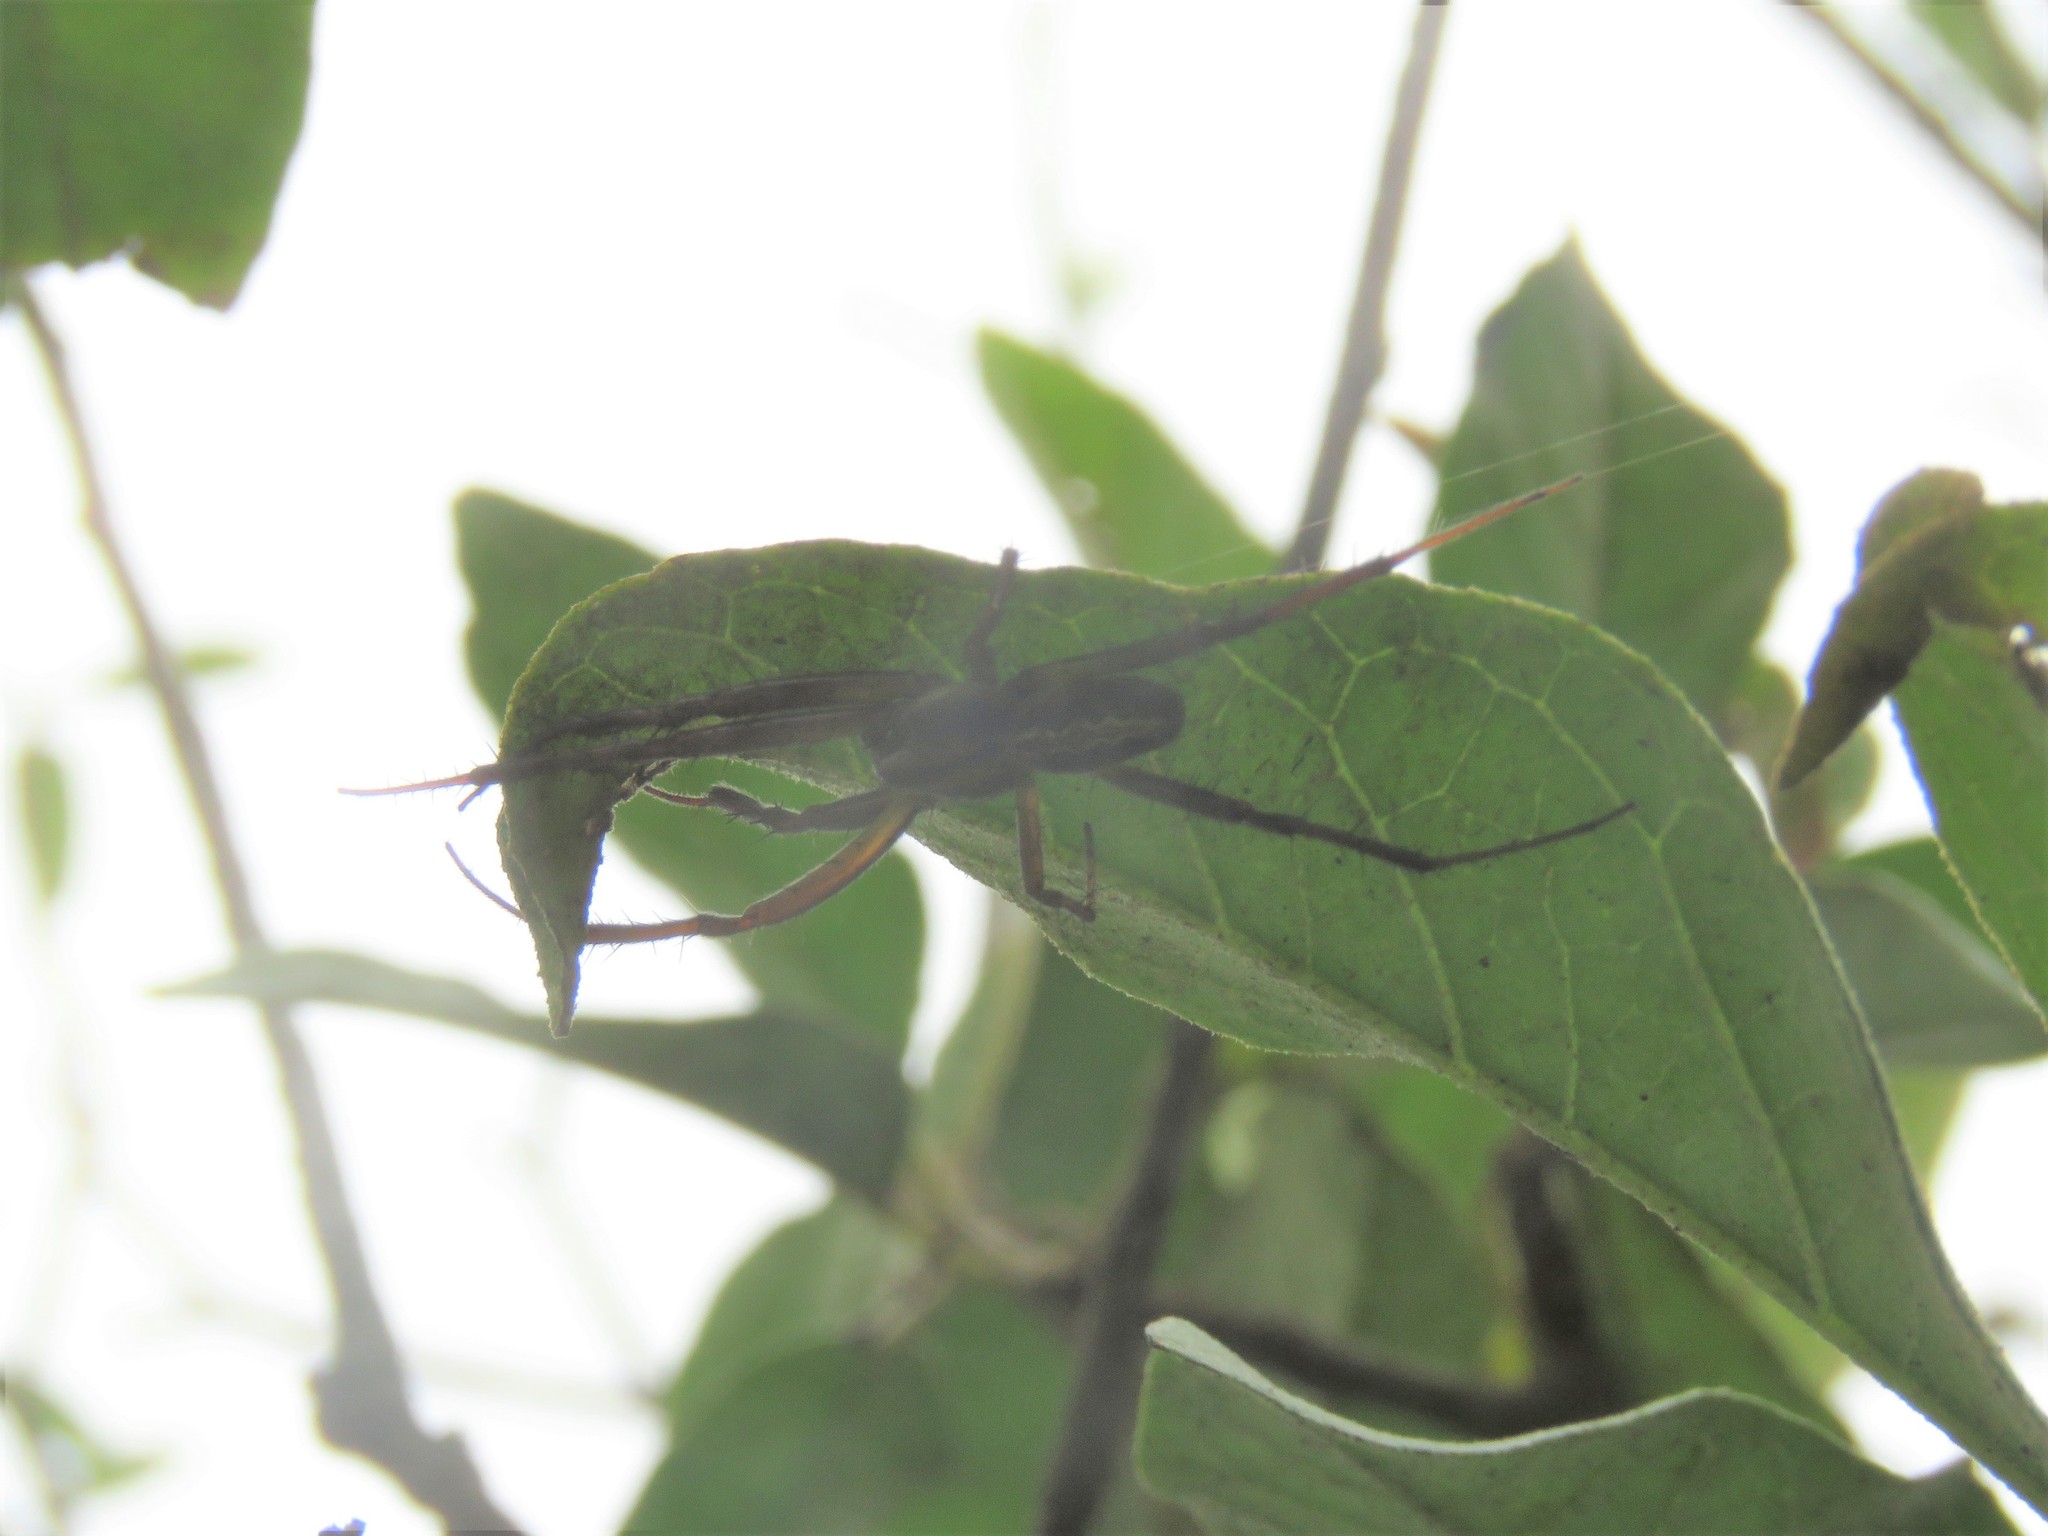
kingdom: Animalia
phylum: Arthropoda
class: Arachnida
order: Araneae
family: Araneidae
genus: Neoscona
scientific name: Neoscona oaxacensis
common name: Orb weavers
